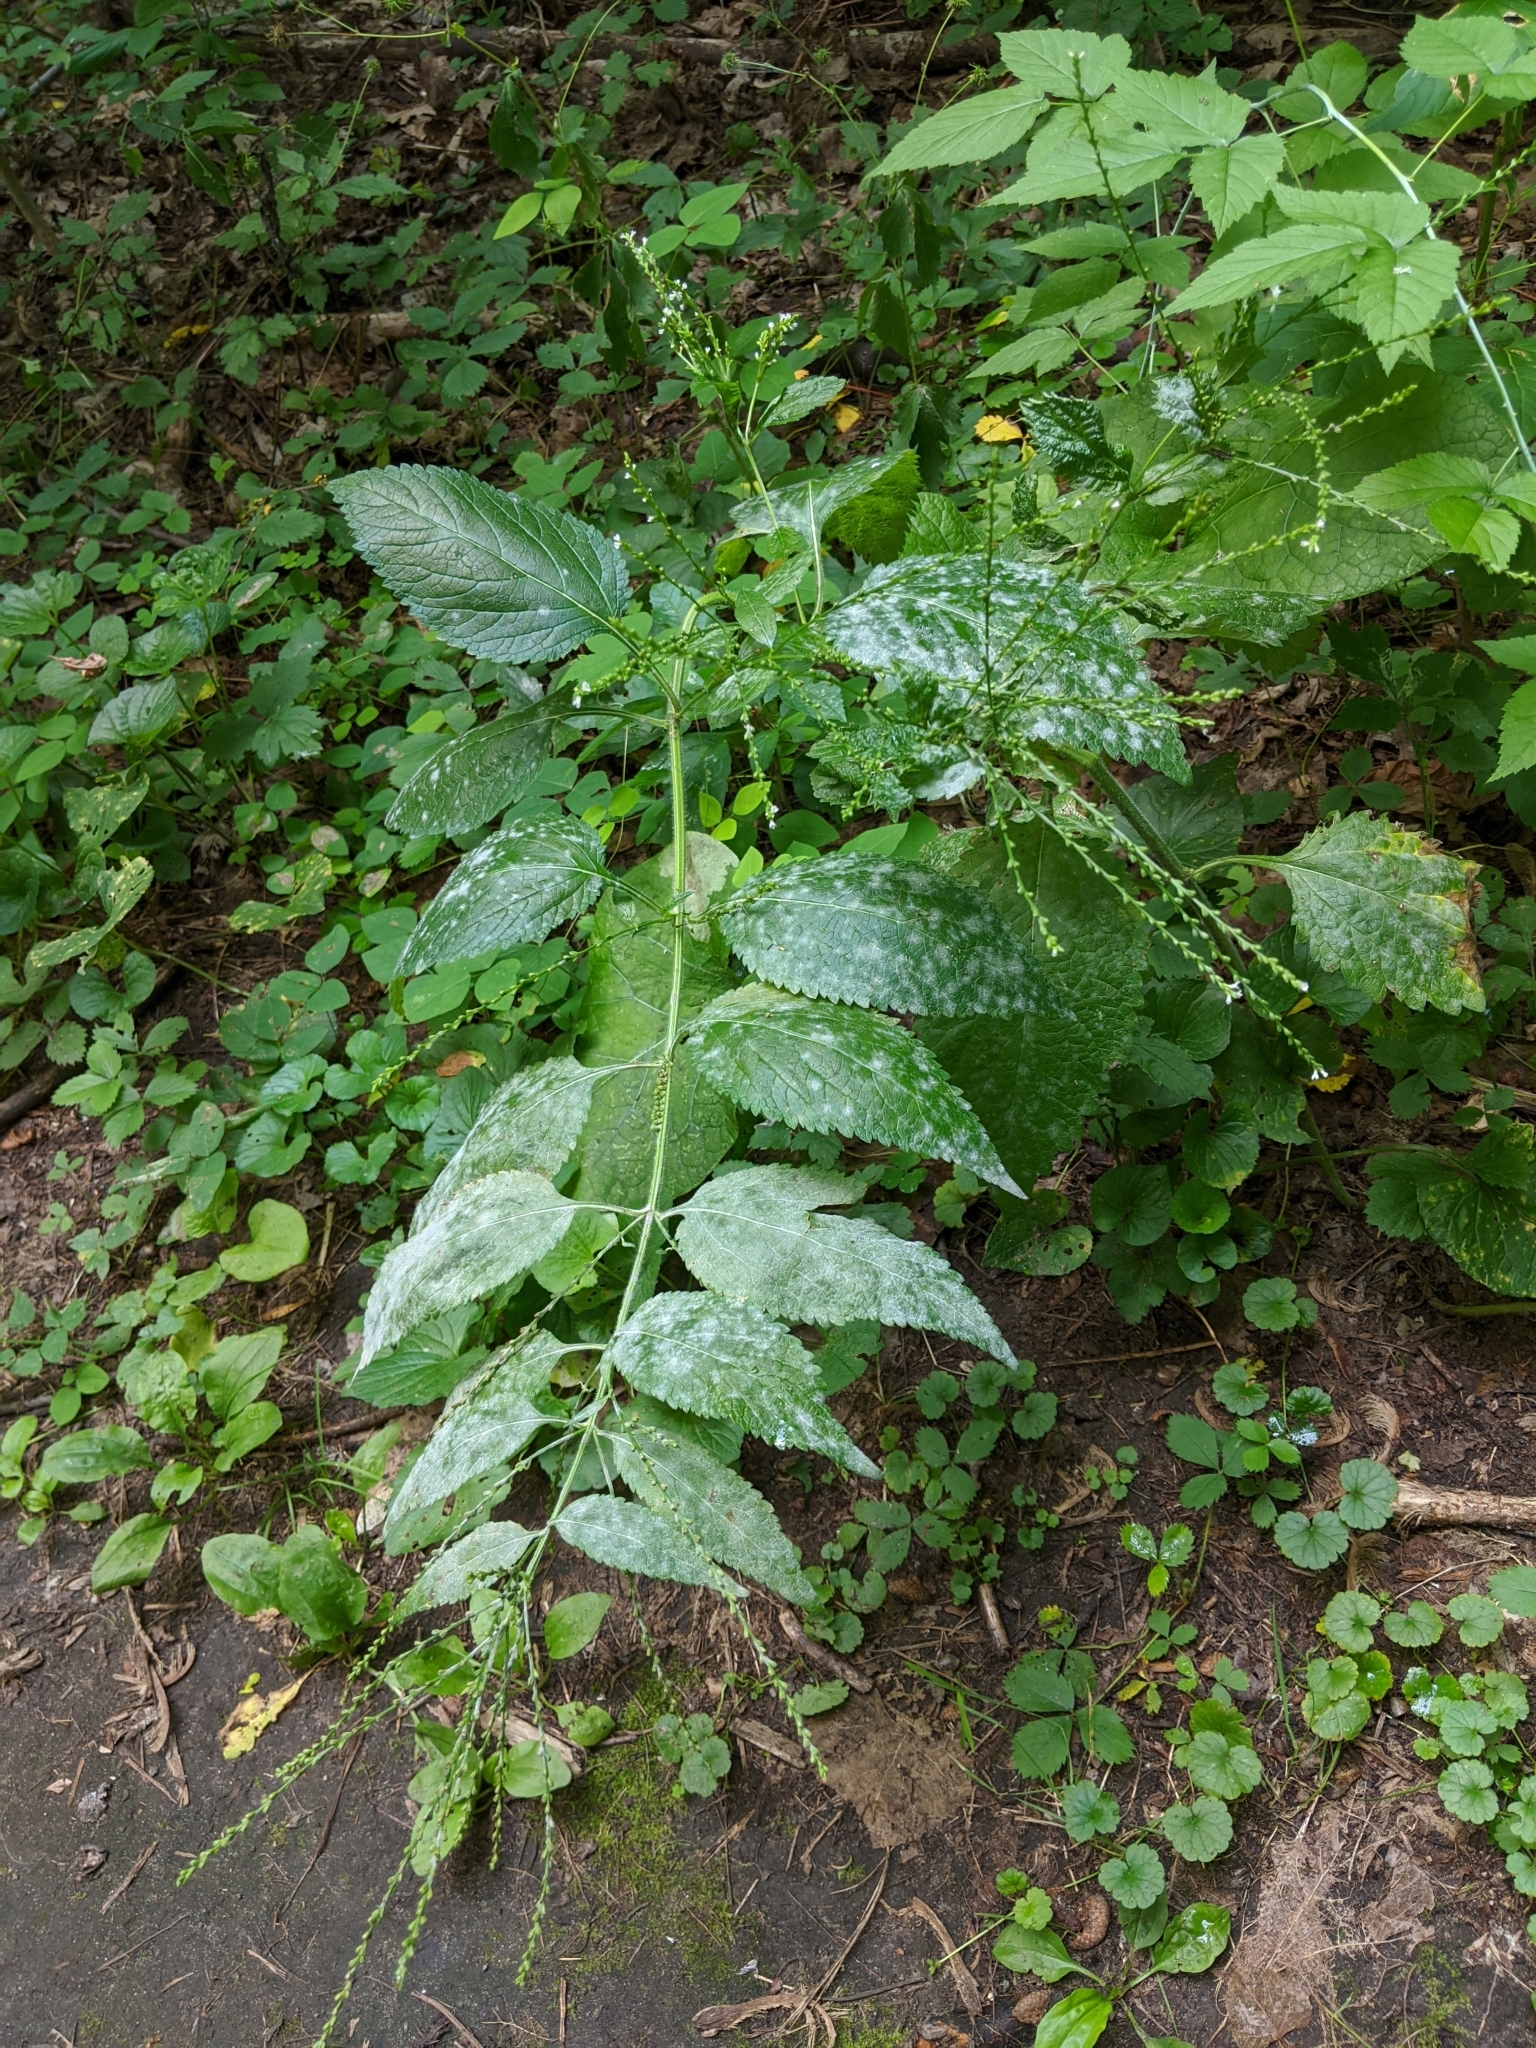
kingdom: Plantae
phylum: Tracheophyta
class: Magnoliopsida
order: Lamiales
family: Verbenaceae
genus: Verbena
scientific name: Verbena urticifolia
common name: Nettle-leaved vervain
